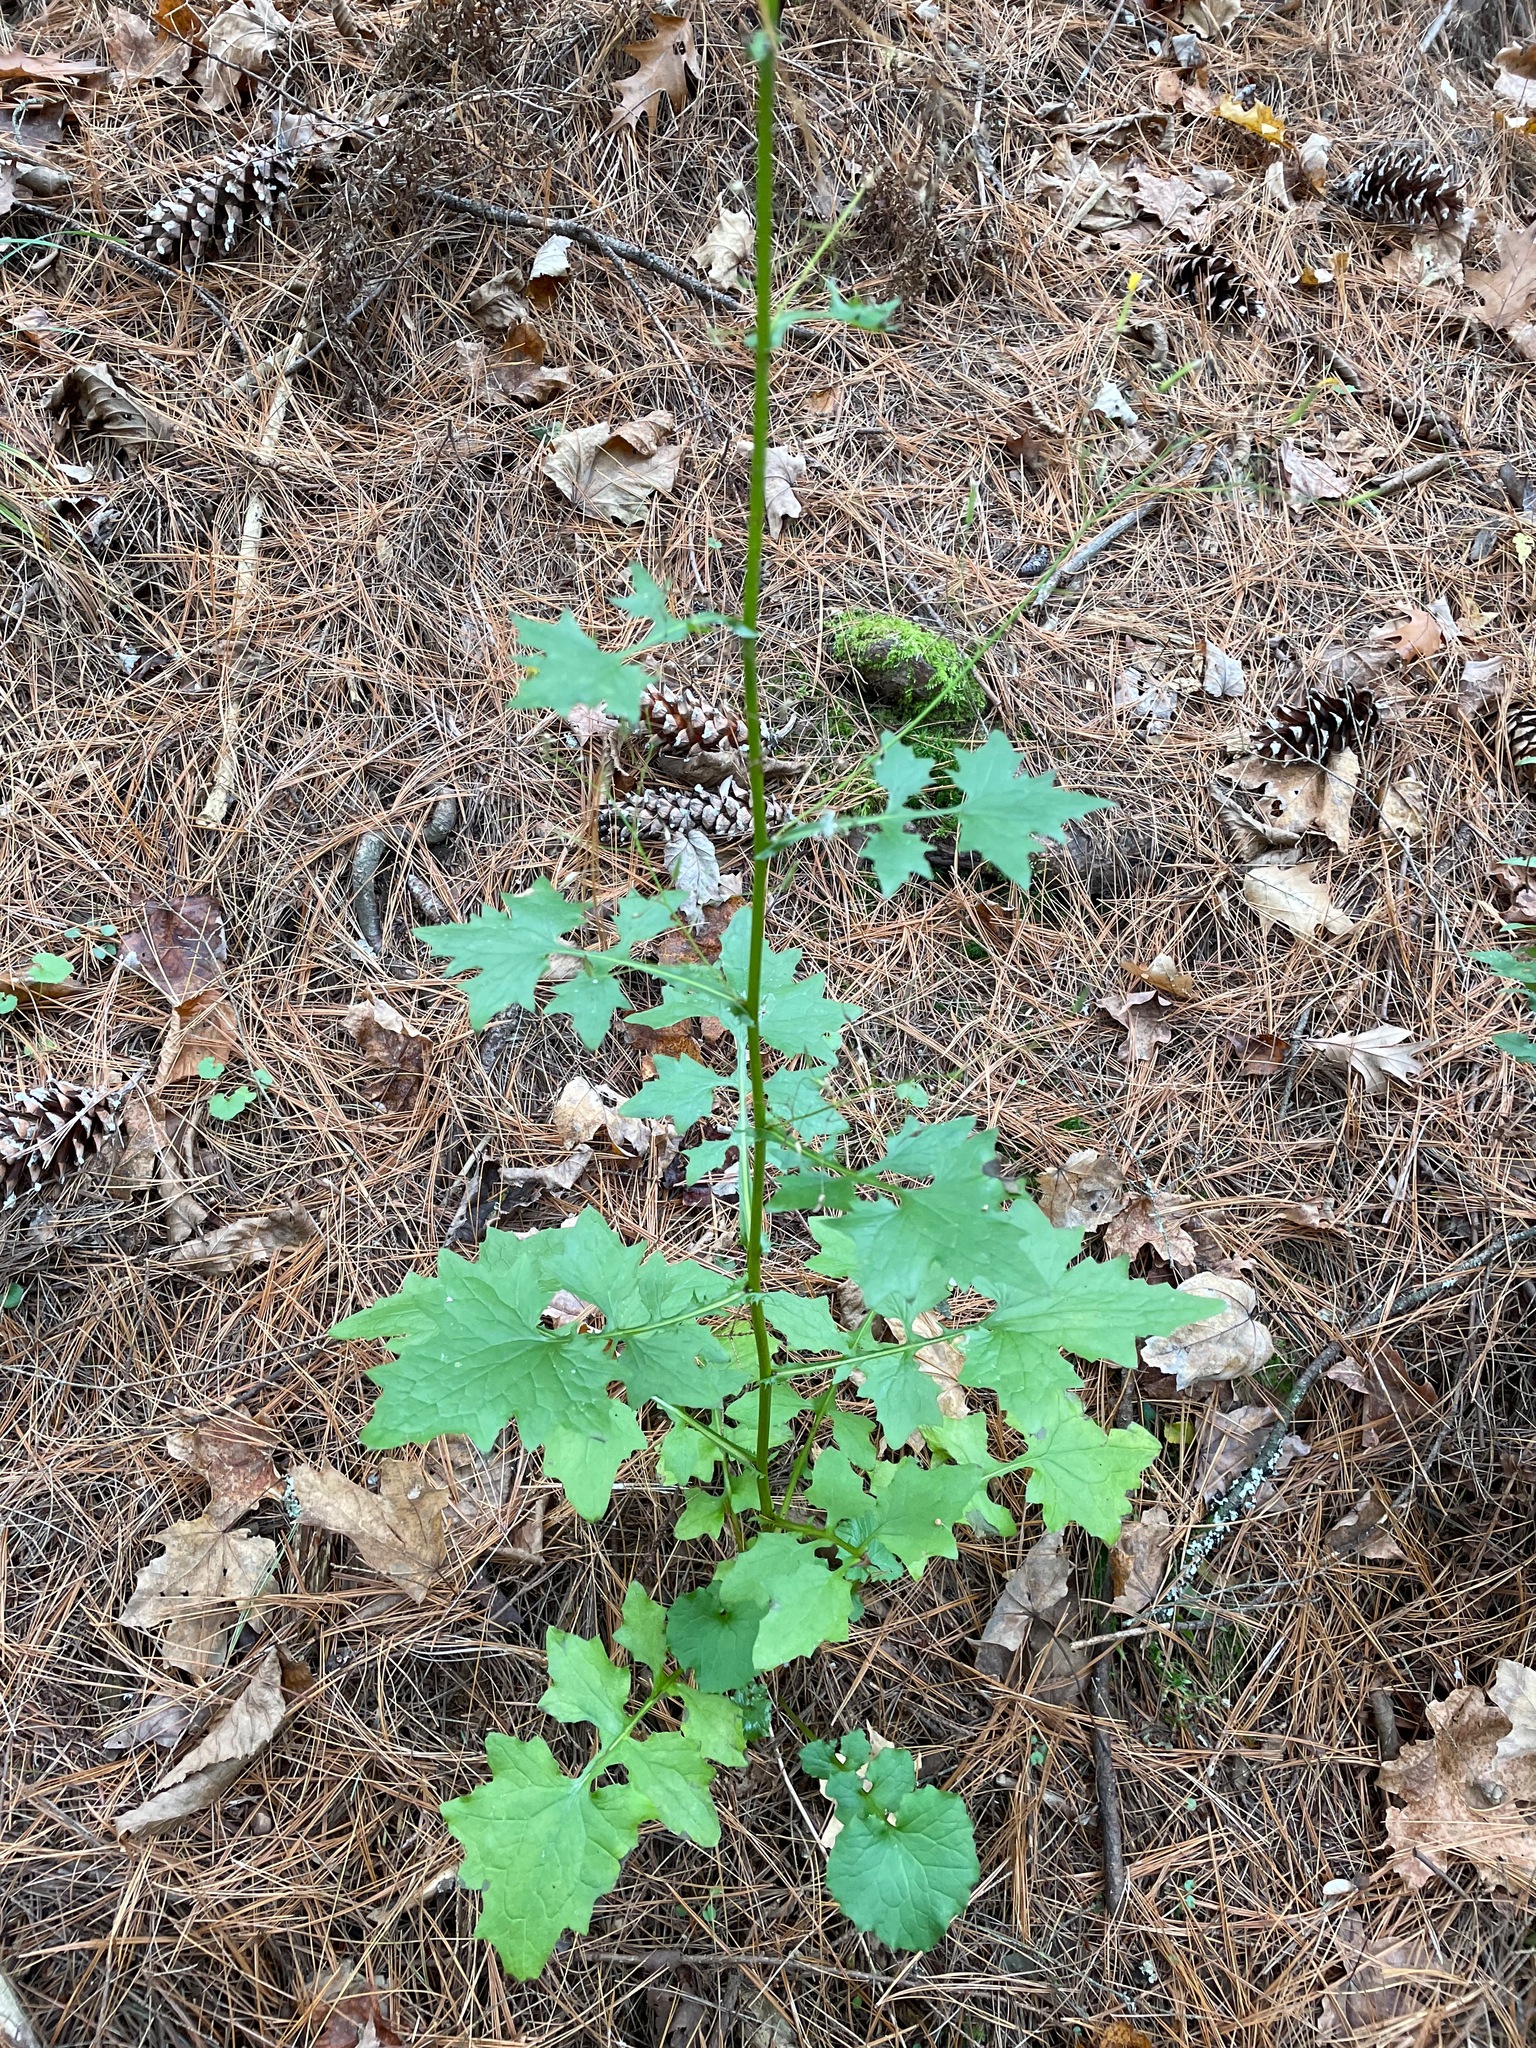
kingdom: Plantae
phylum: Tracheophyta
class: Magnoliopsida
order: Asterales
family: Asteraceae
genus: Mycelis
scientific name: Mycelis muralis
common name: Wall lettuce
